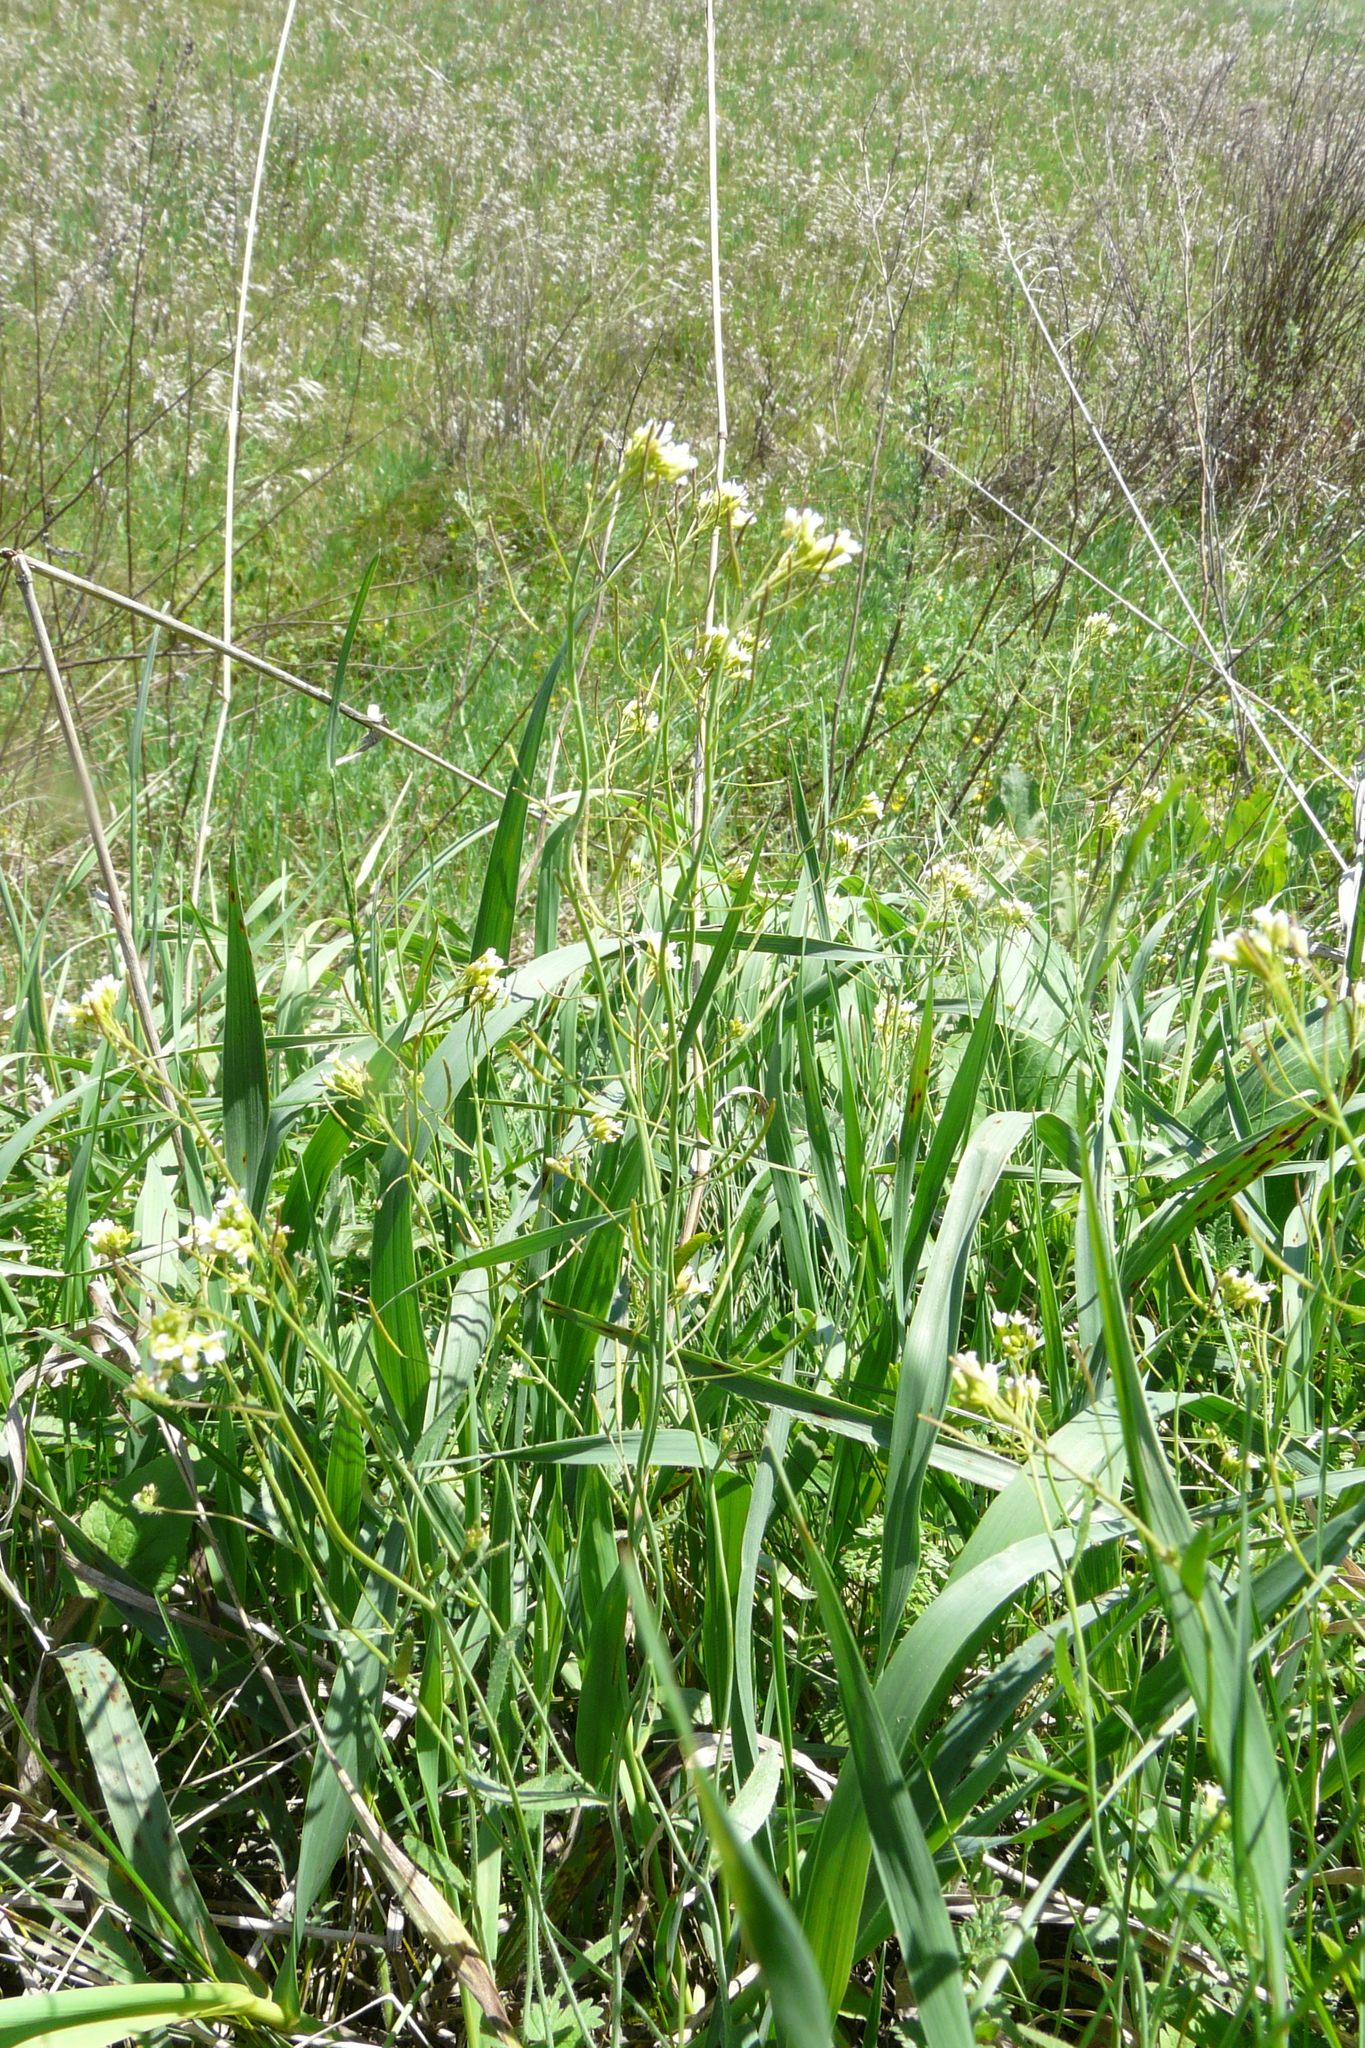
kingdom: Plantae
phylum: Tracheophyta
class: Magnoliopsida
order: Brassicales
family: Brassicaceae
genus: Arabidopsis
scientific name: Arabidopsis thaliana
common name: Thale cress
